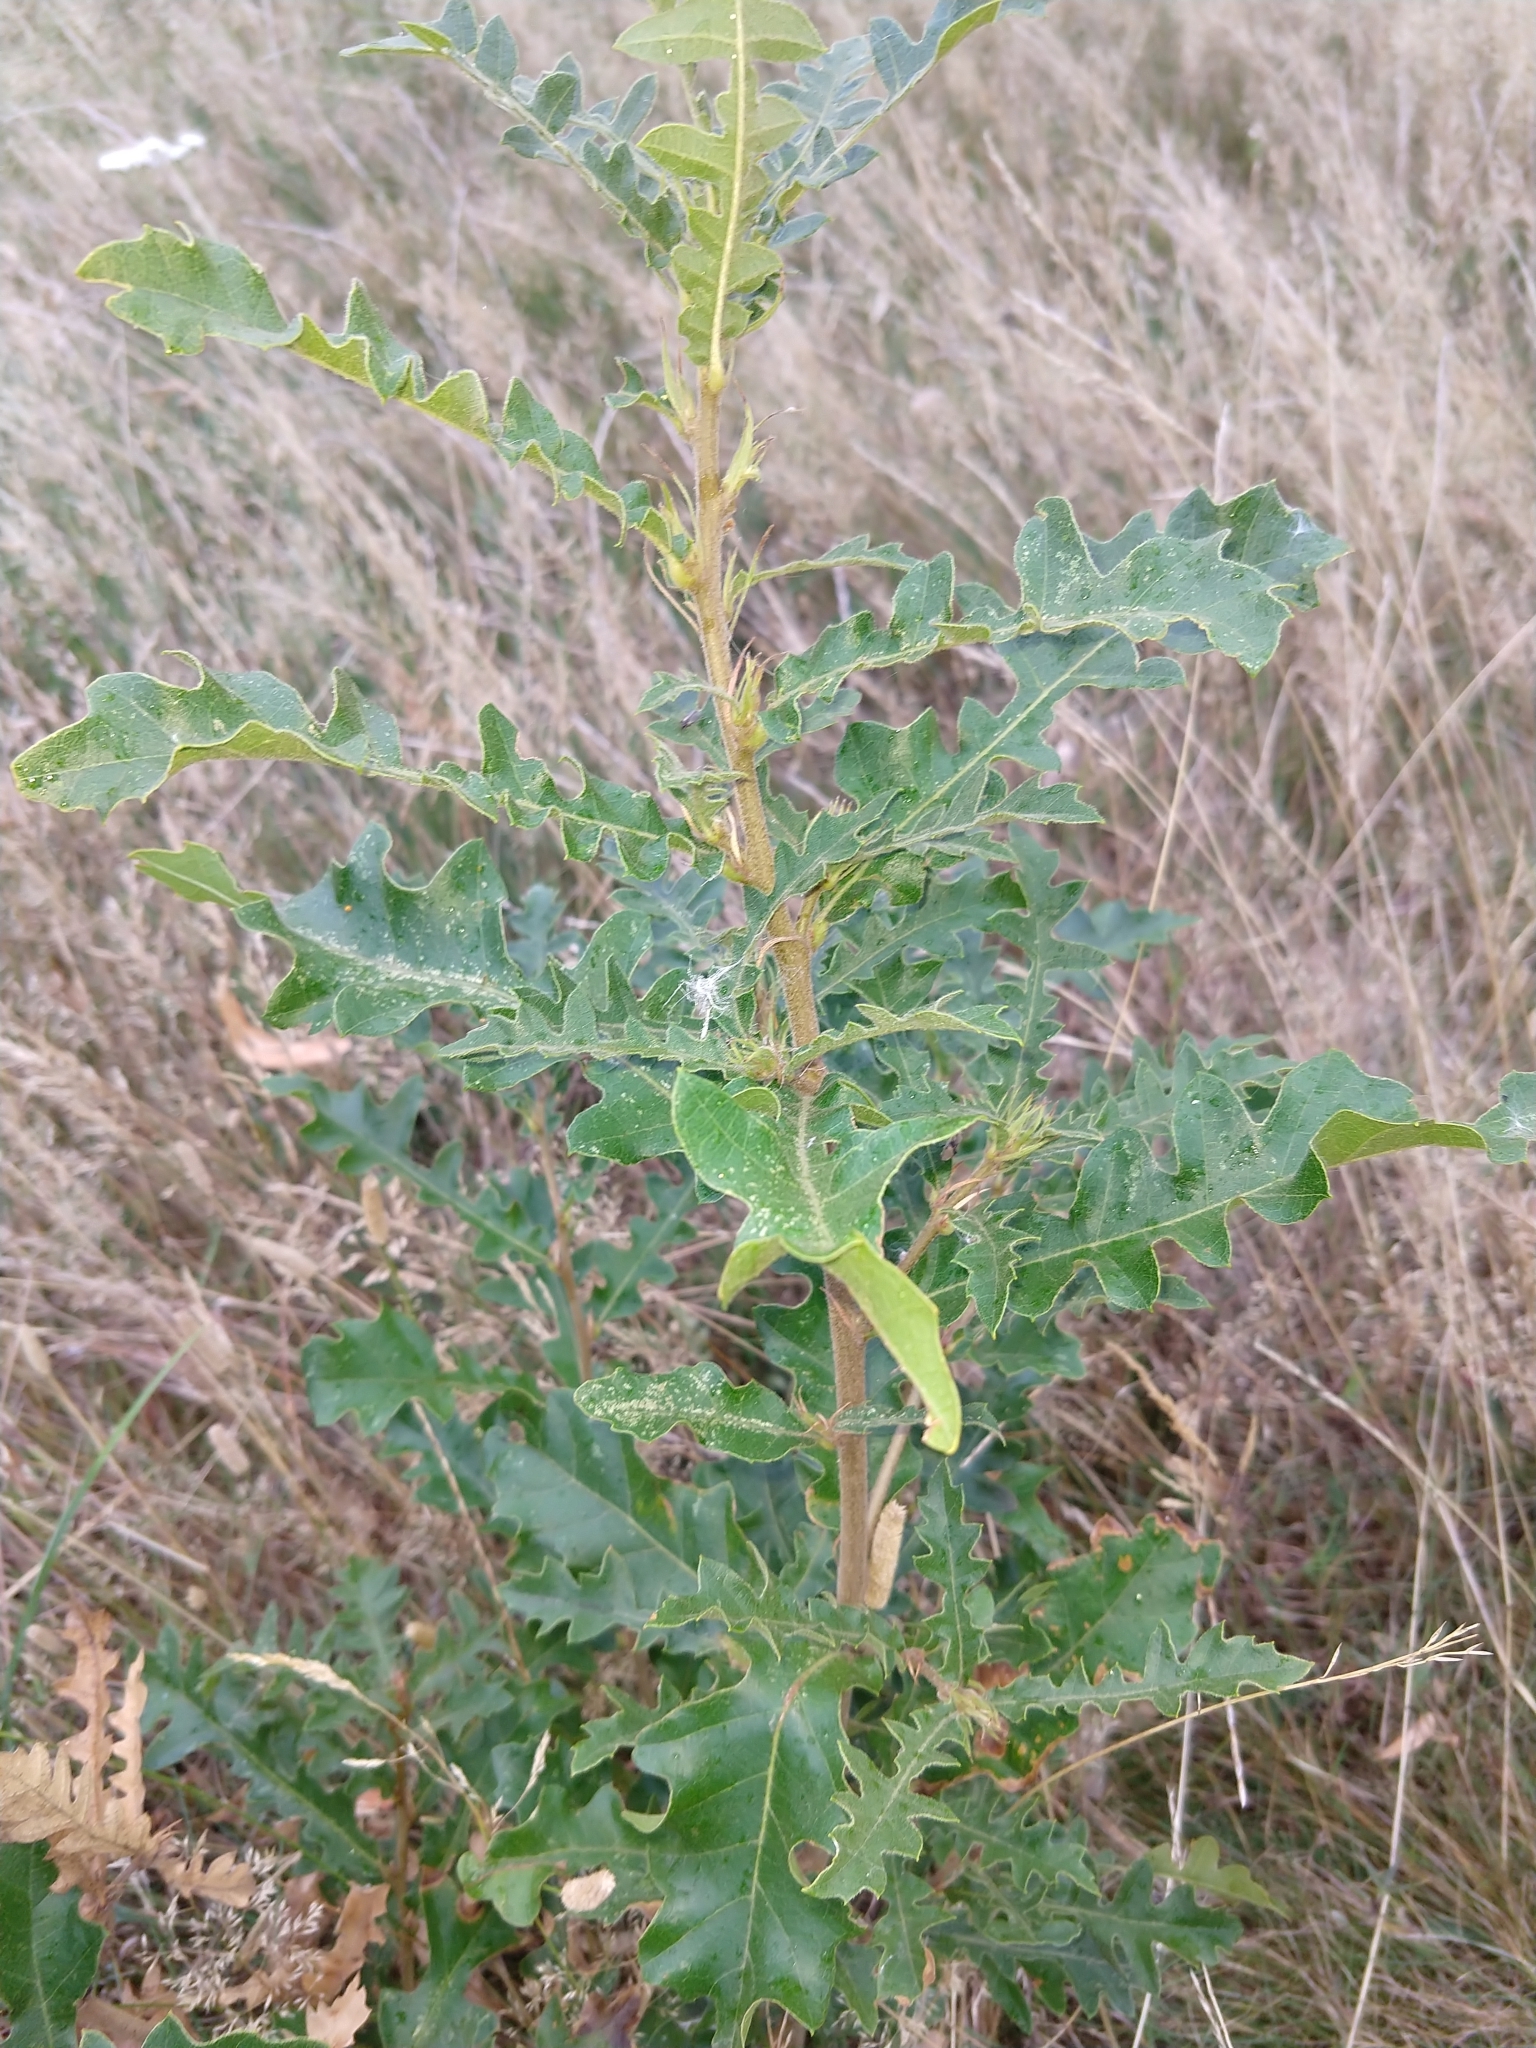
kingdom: Plantae
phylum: Tracheophyta
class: Magnoliopsida
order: Fagales
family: Fagaceae
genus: Quercus
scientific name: Quercus cerris
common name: Turkey oak
